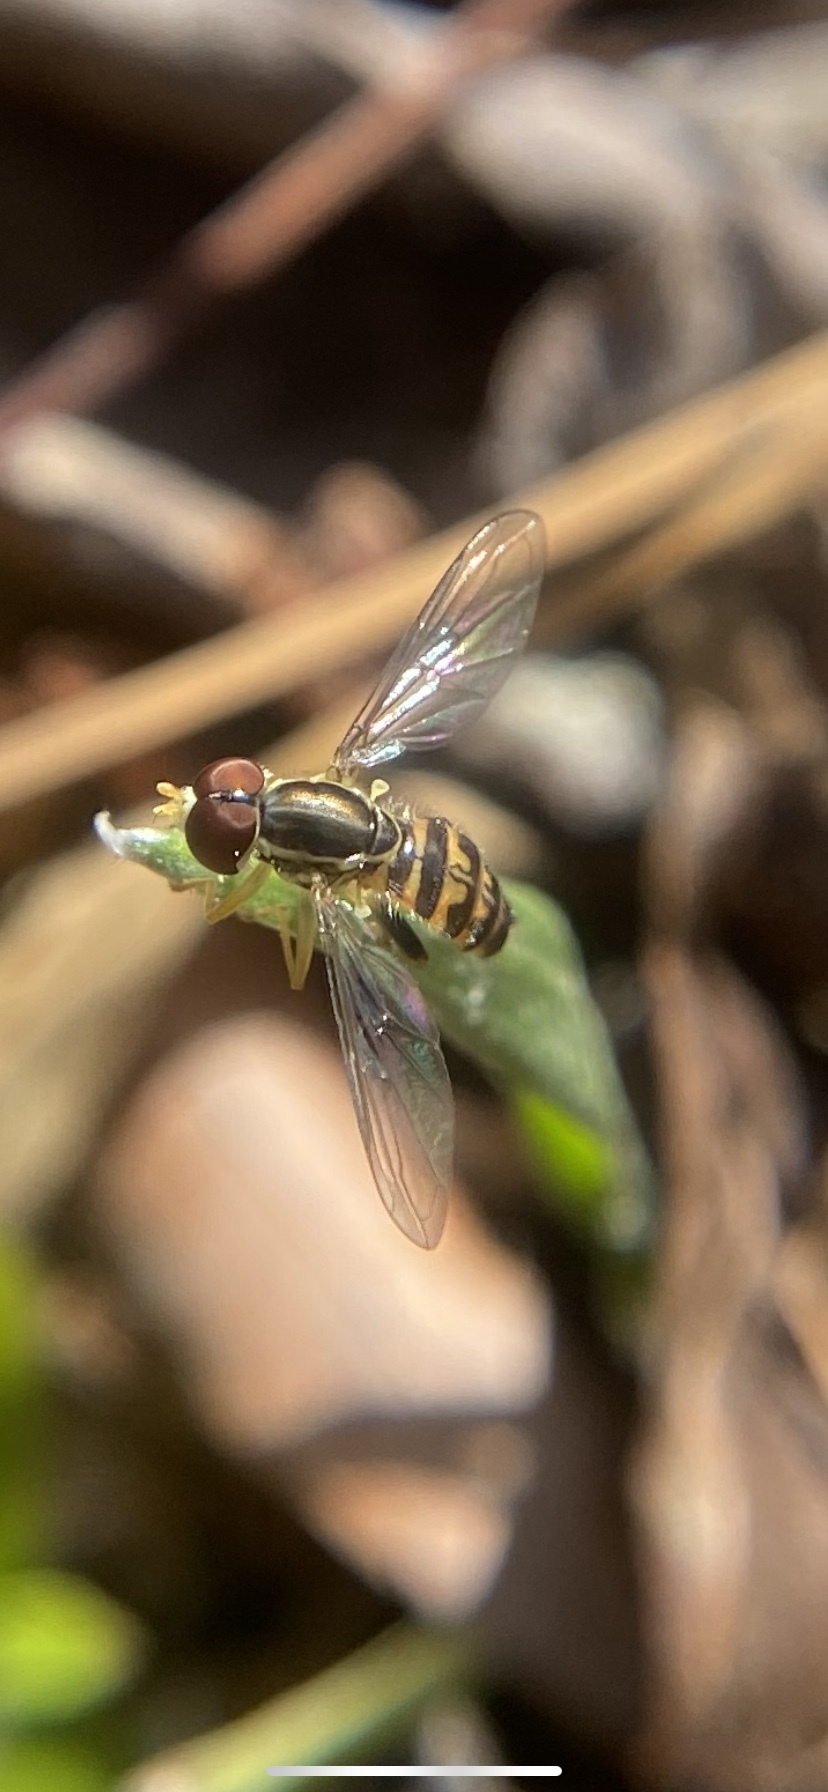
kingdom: Animalia
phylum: Arthropoda
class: Insecta
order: Diptera
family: Syrphidae
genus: Toxomerus
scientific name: Toxomerus geminatus
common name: Eastern calligrapher
